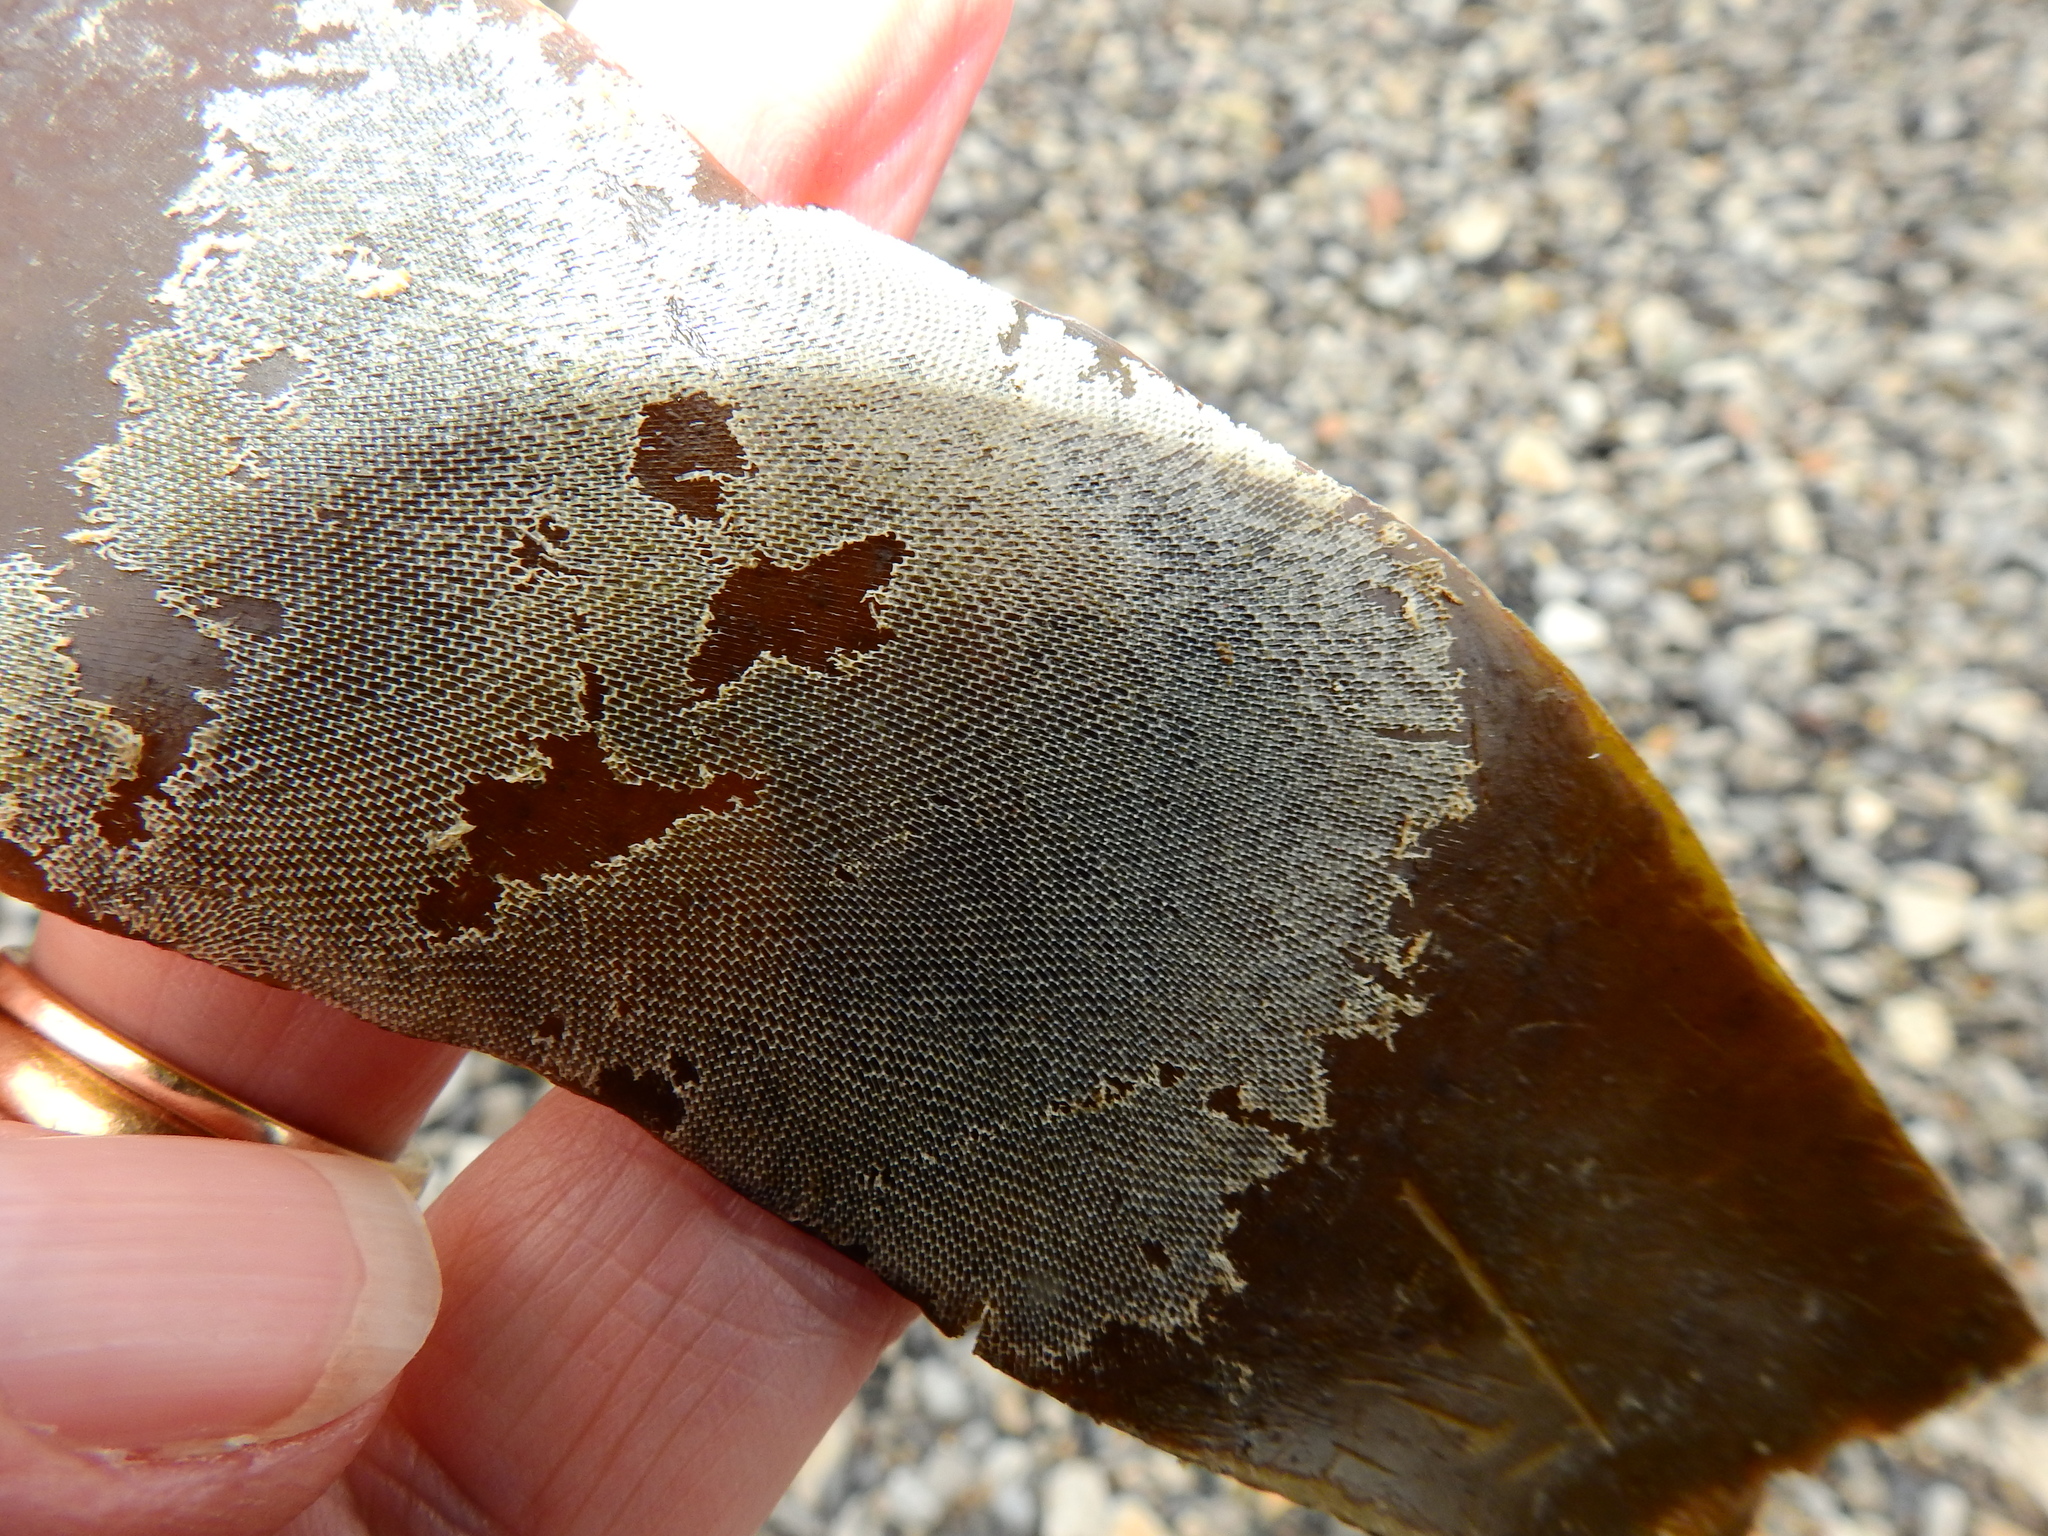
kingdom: Animalia
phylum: Bryozoa
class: Gymnolaemata
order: Cheilostomatida
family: Membraniporidae
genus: Membranipora
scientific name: Membranipora membranacea
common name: Sea mat
